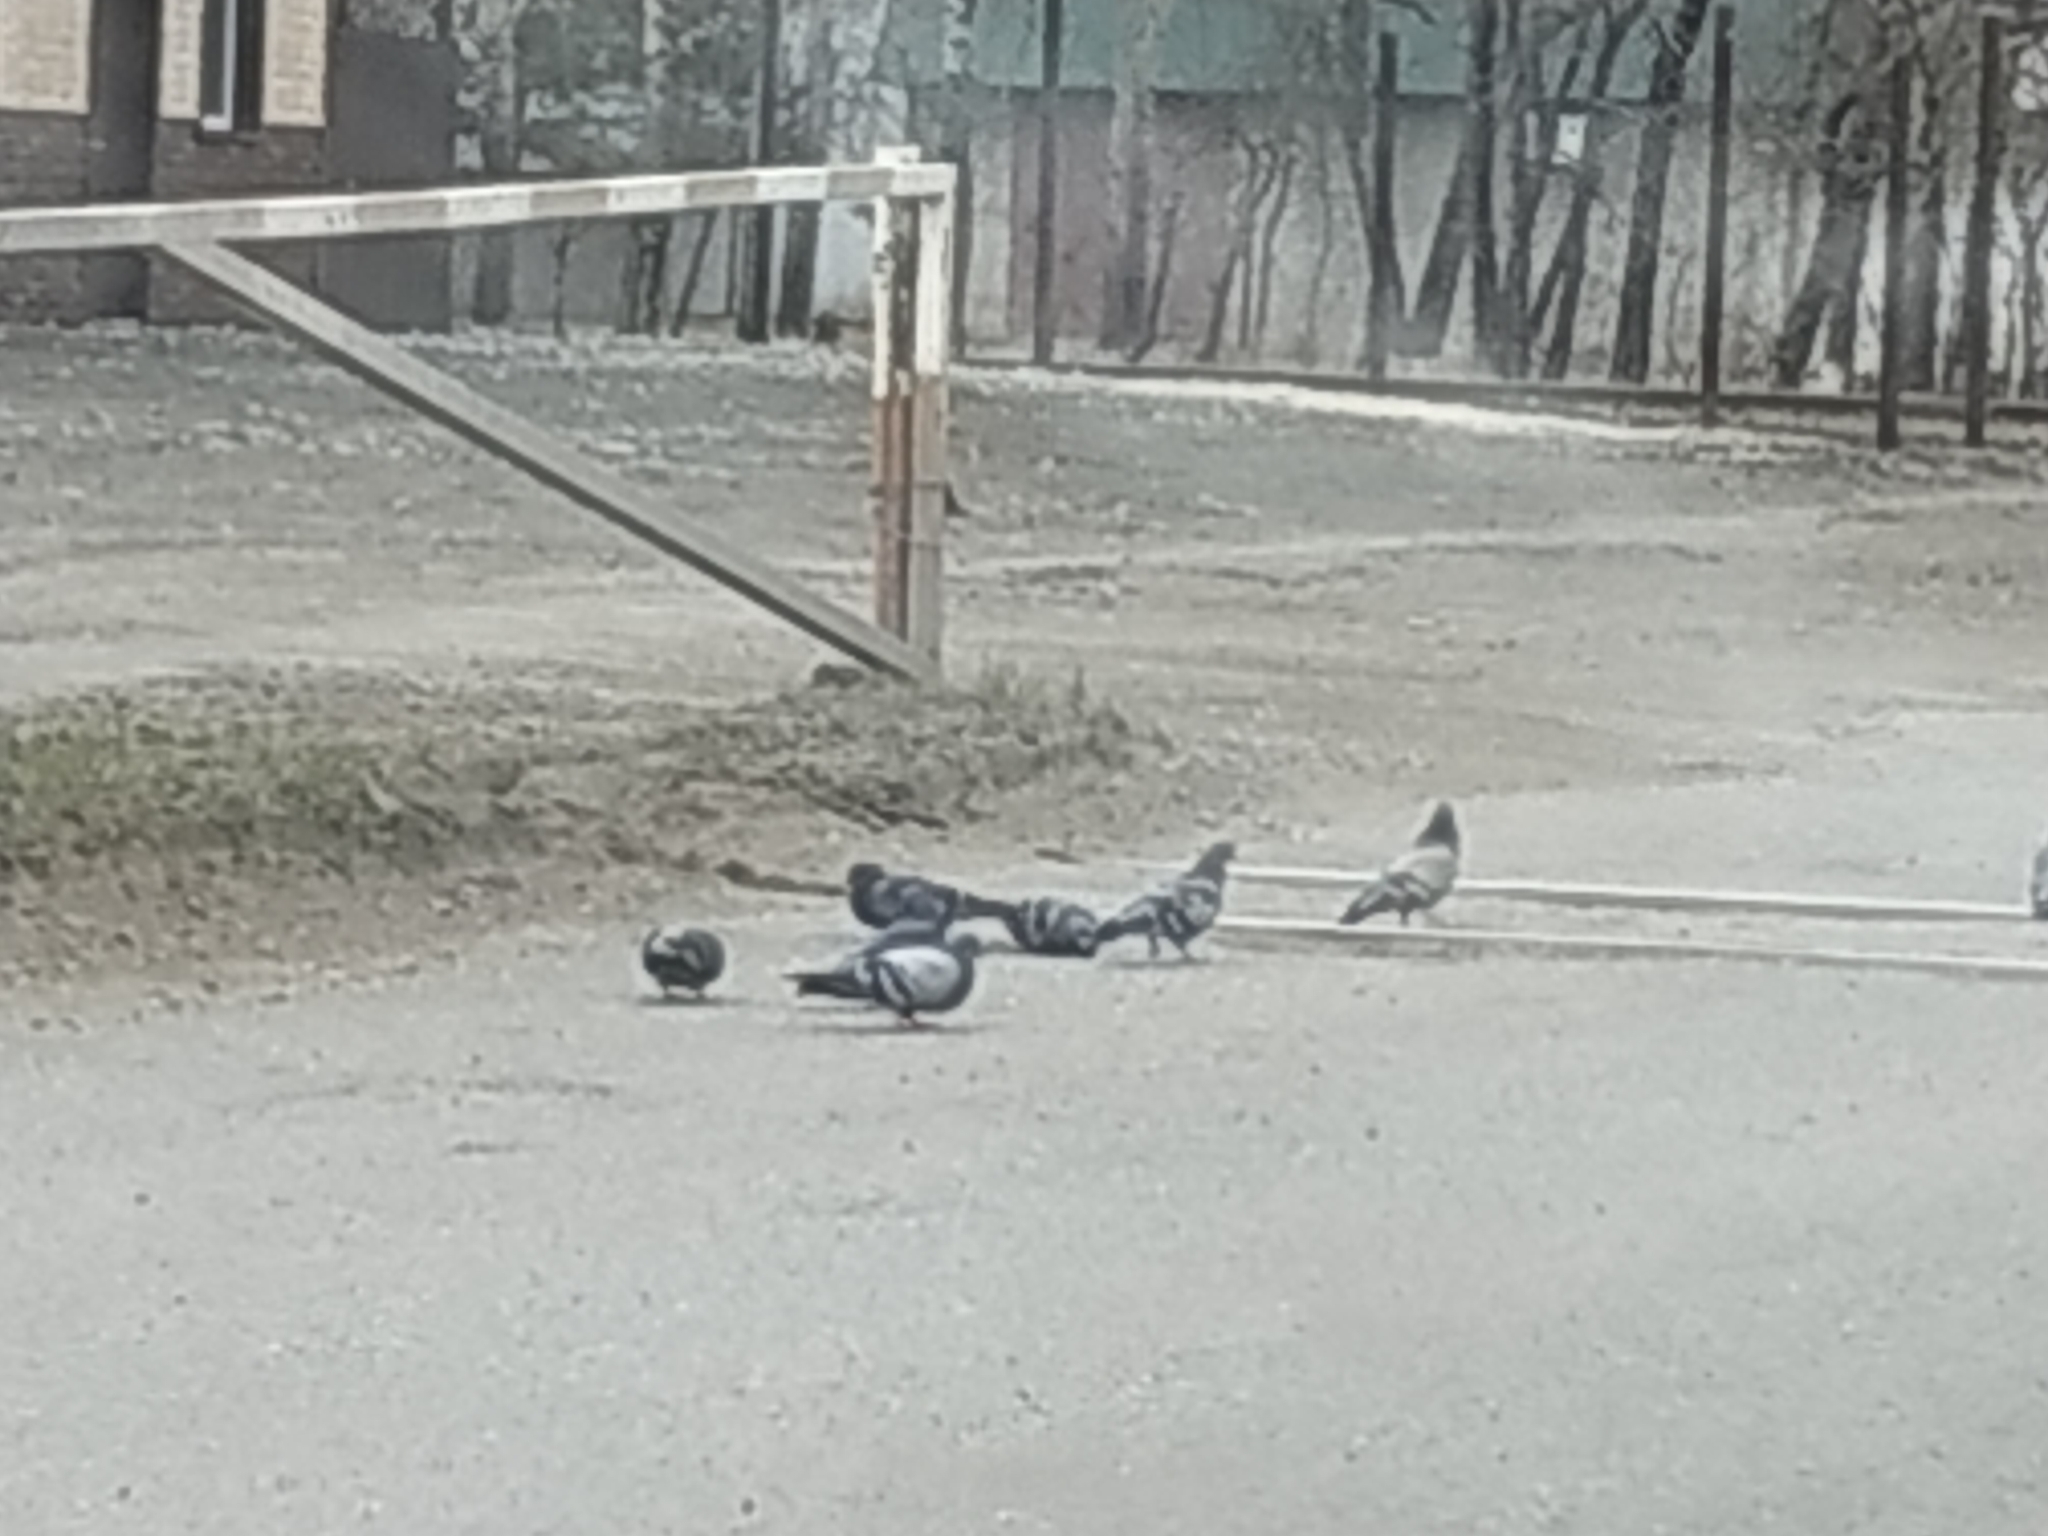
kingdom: Animalia
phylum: Chordata
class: Aves
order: Columbiformes
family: Columbidae
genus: Columba
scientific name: Columba livia
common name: Rock pigeon
